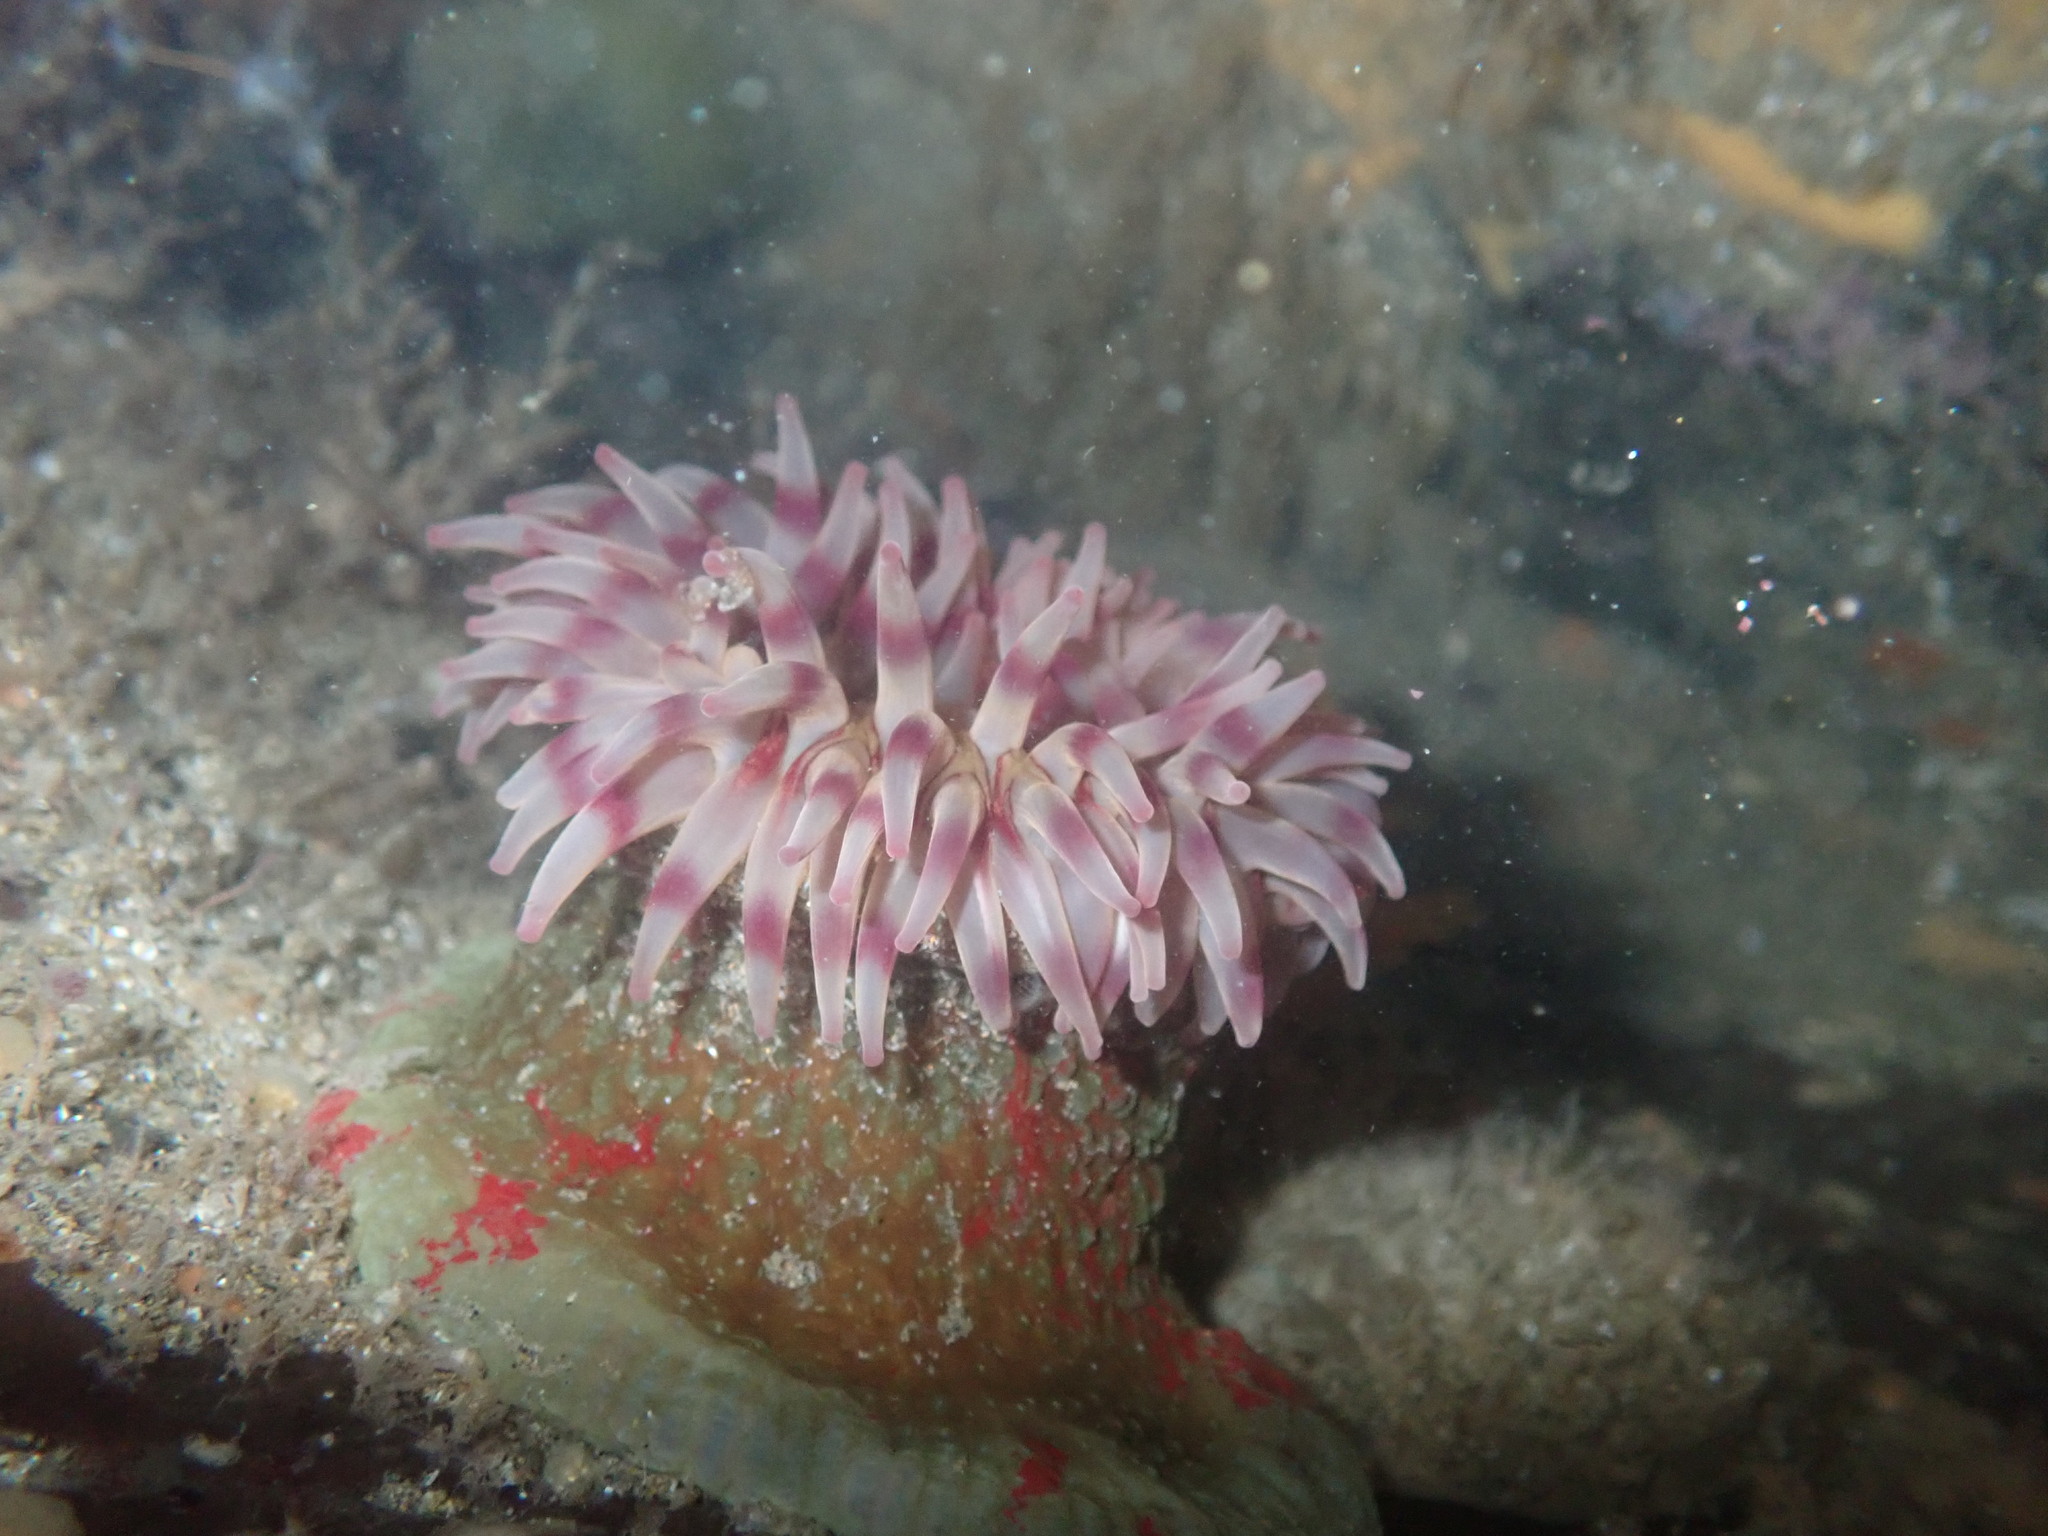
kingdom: Animalia
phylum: Cnidaria
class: Anthozoa
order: Actiniaria
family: Actiniidae
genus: Urticina
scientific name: Urticina grebelnyi
